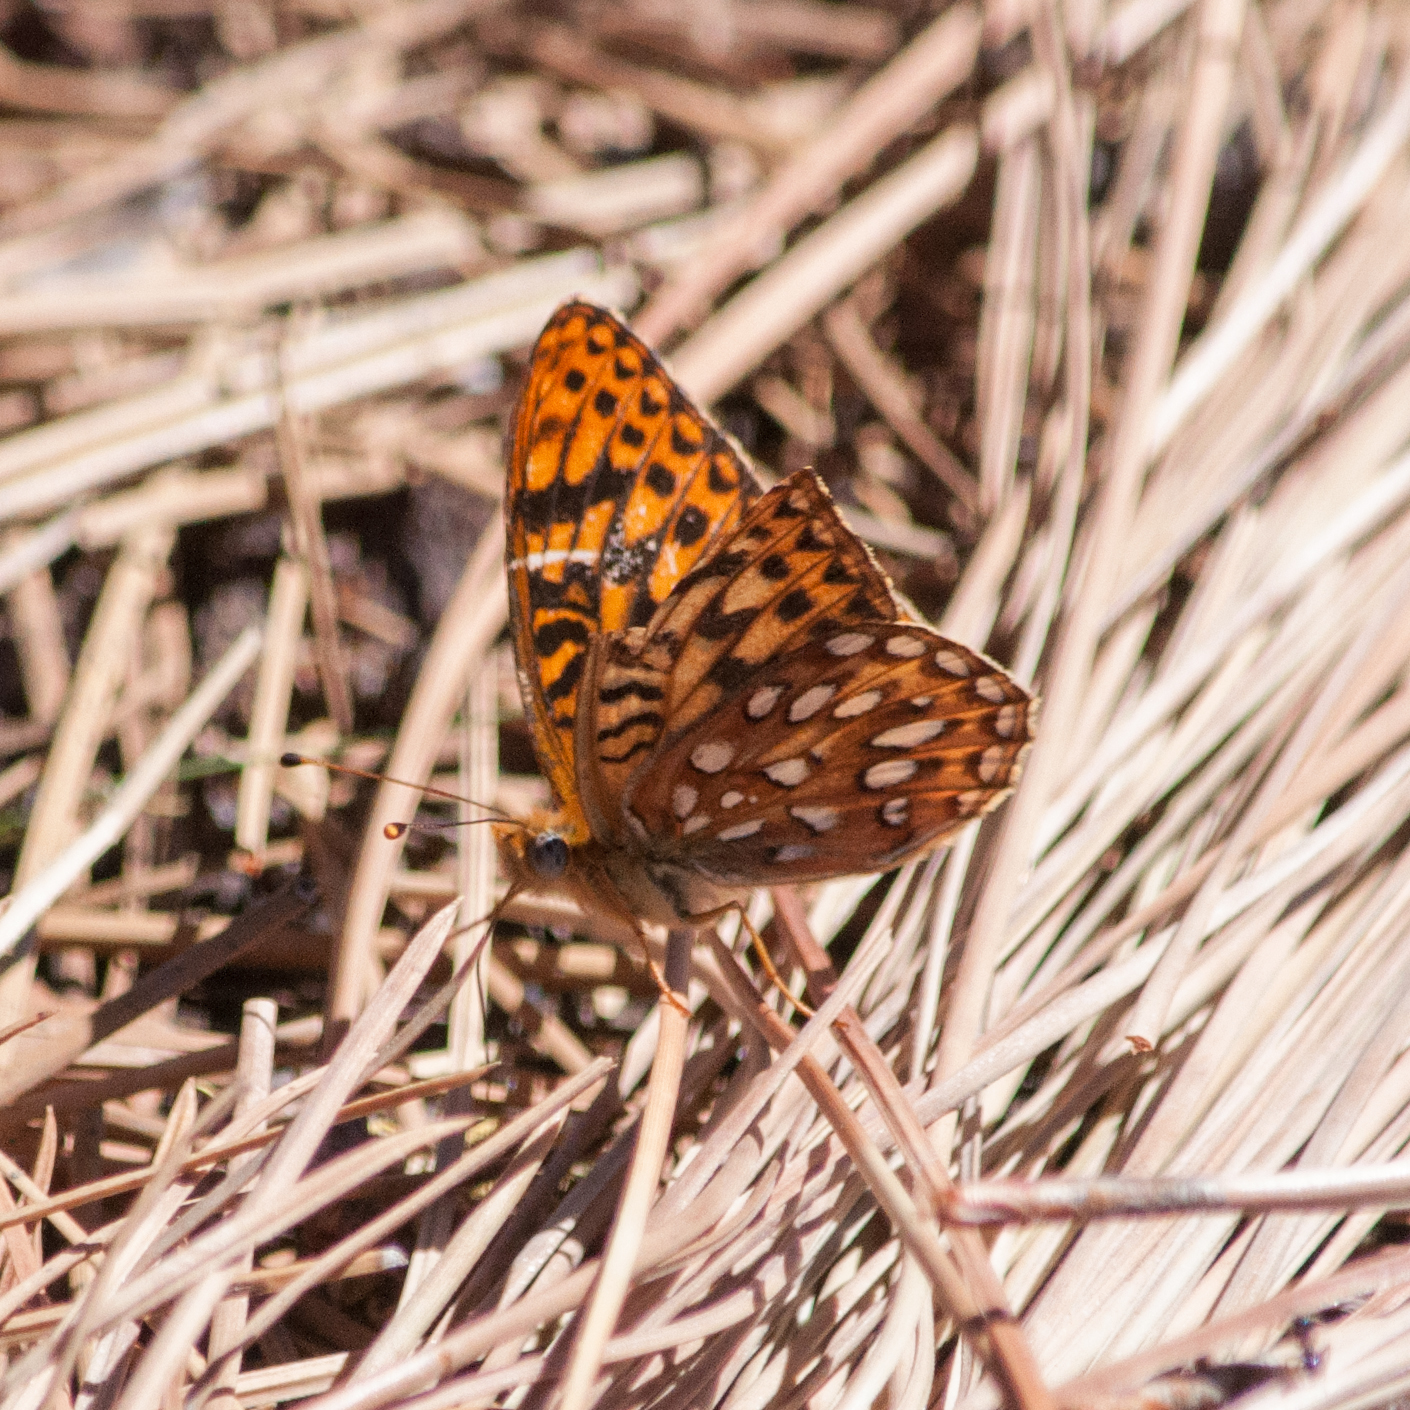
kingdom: Animalia
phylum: Arthropoda
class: Insecta
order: Lepidoptera
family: Nymphalidae
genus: Speyeria
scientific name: Speyeria zerene
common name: Zerene fritillary
